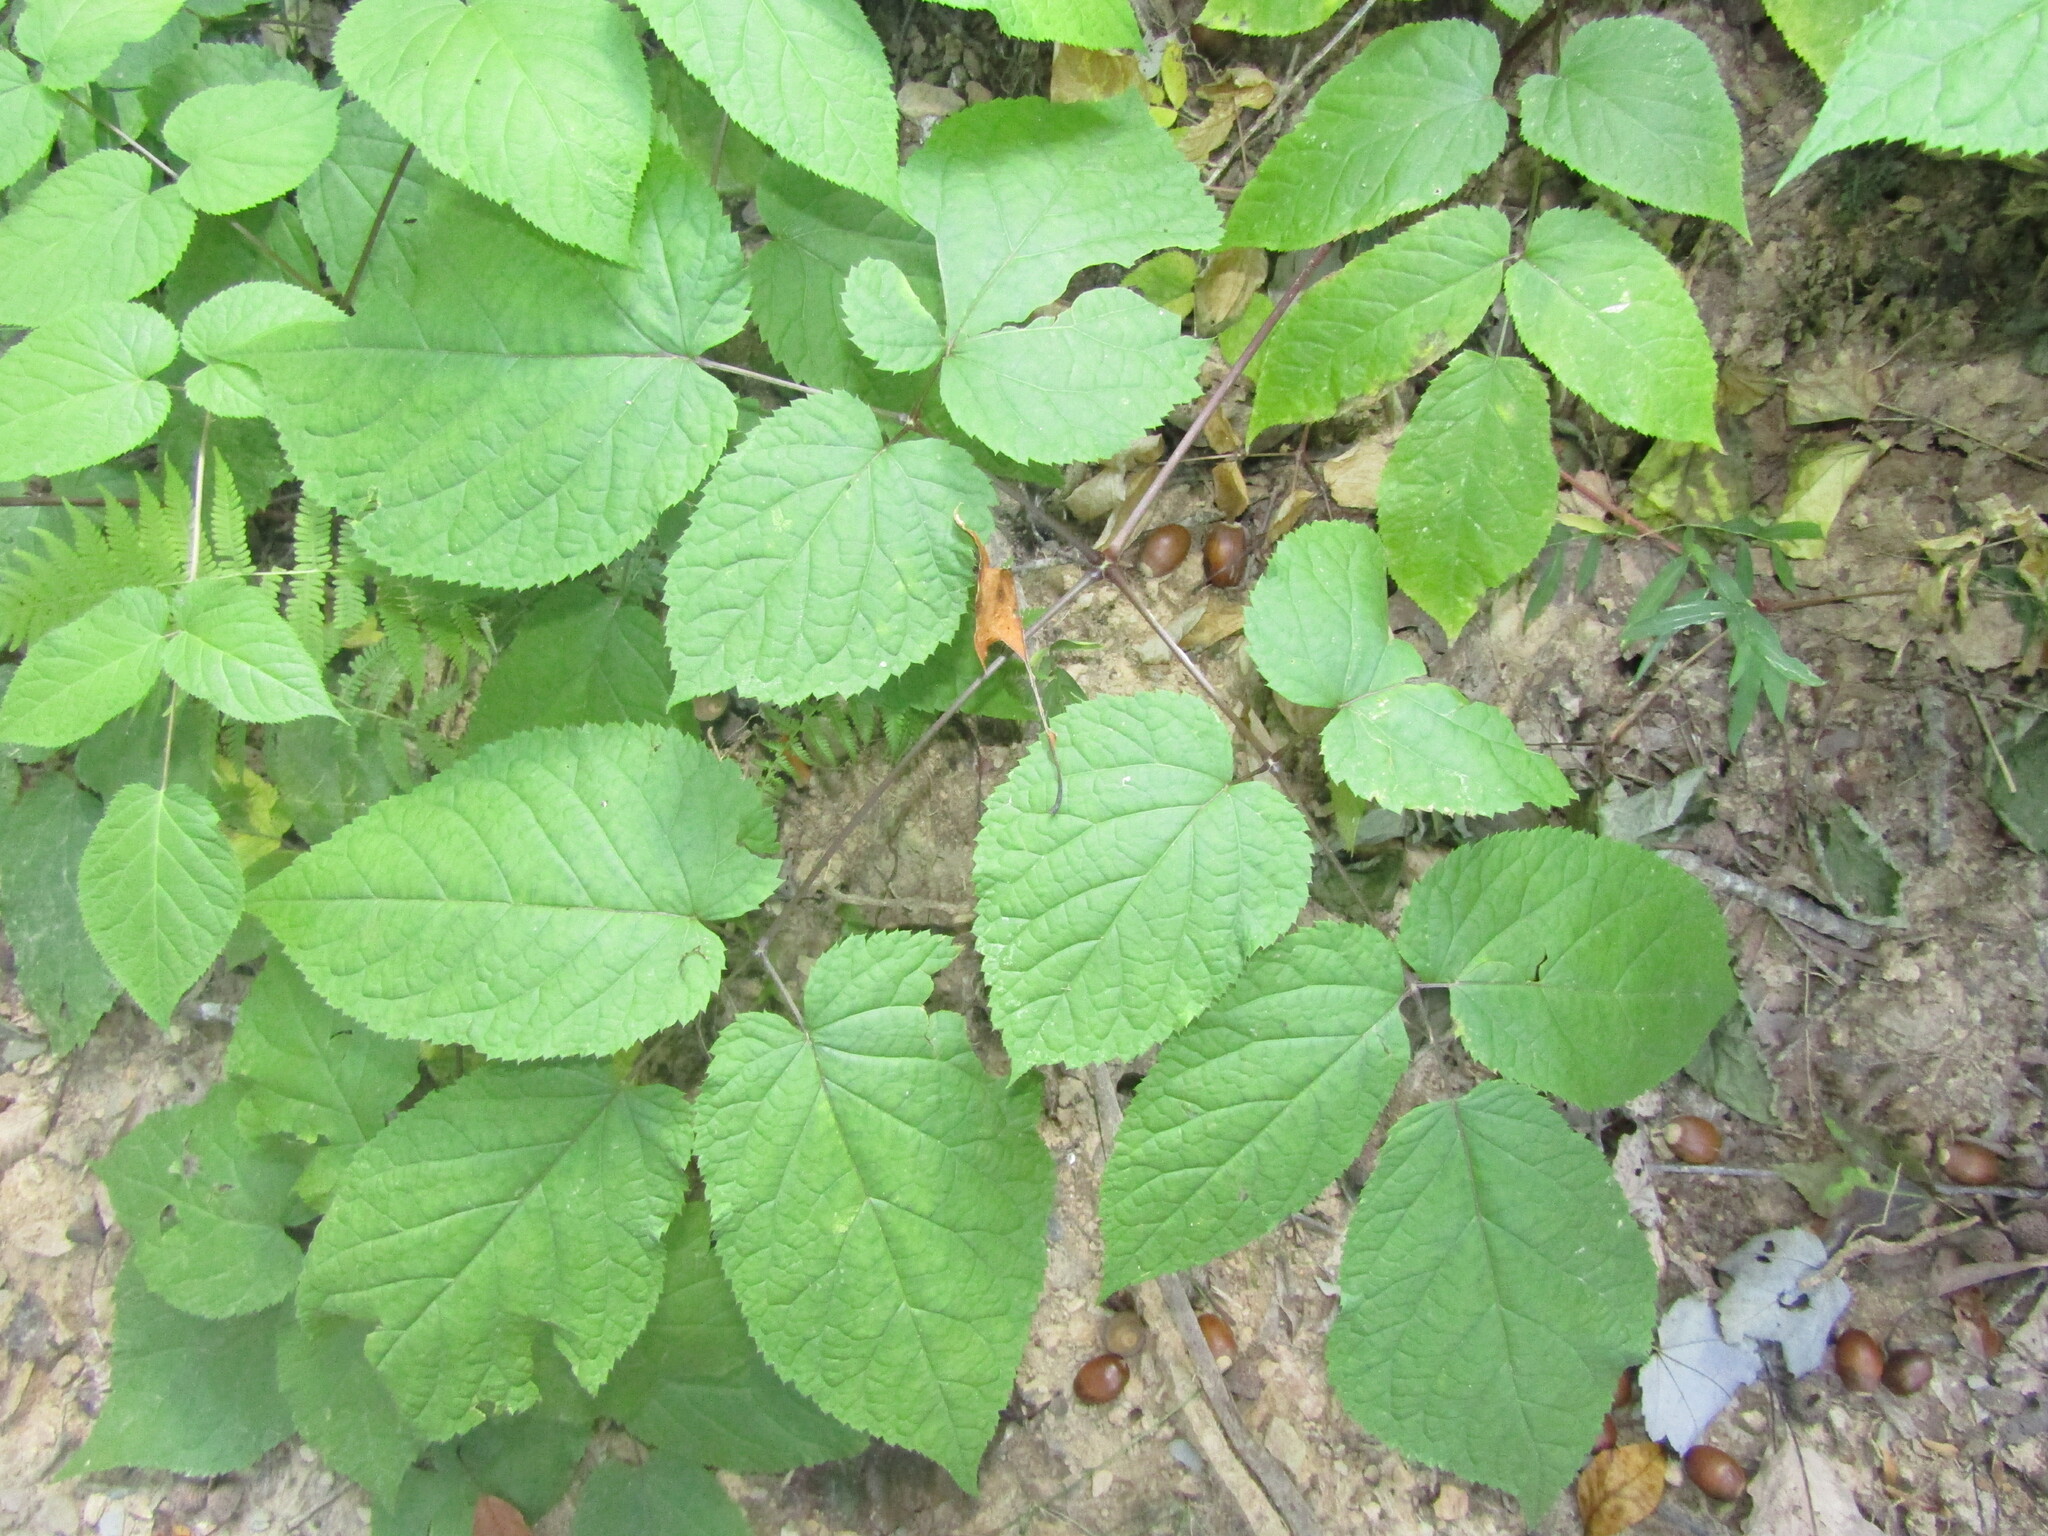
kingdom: Plantae
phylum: Tracheophyta
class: Magnoliopsida
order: Apiales
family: Araliaceae
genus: Aralia
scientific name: Aralia racemosa
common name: American-spikenard
